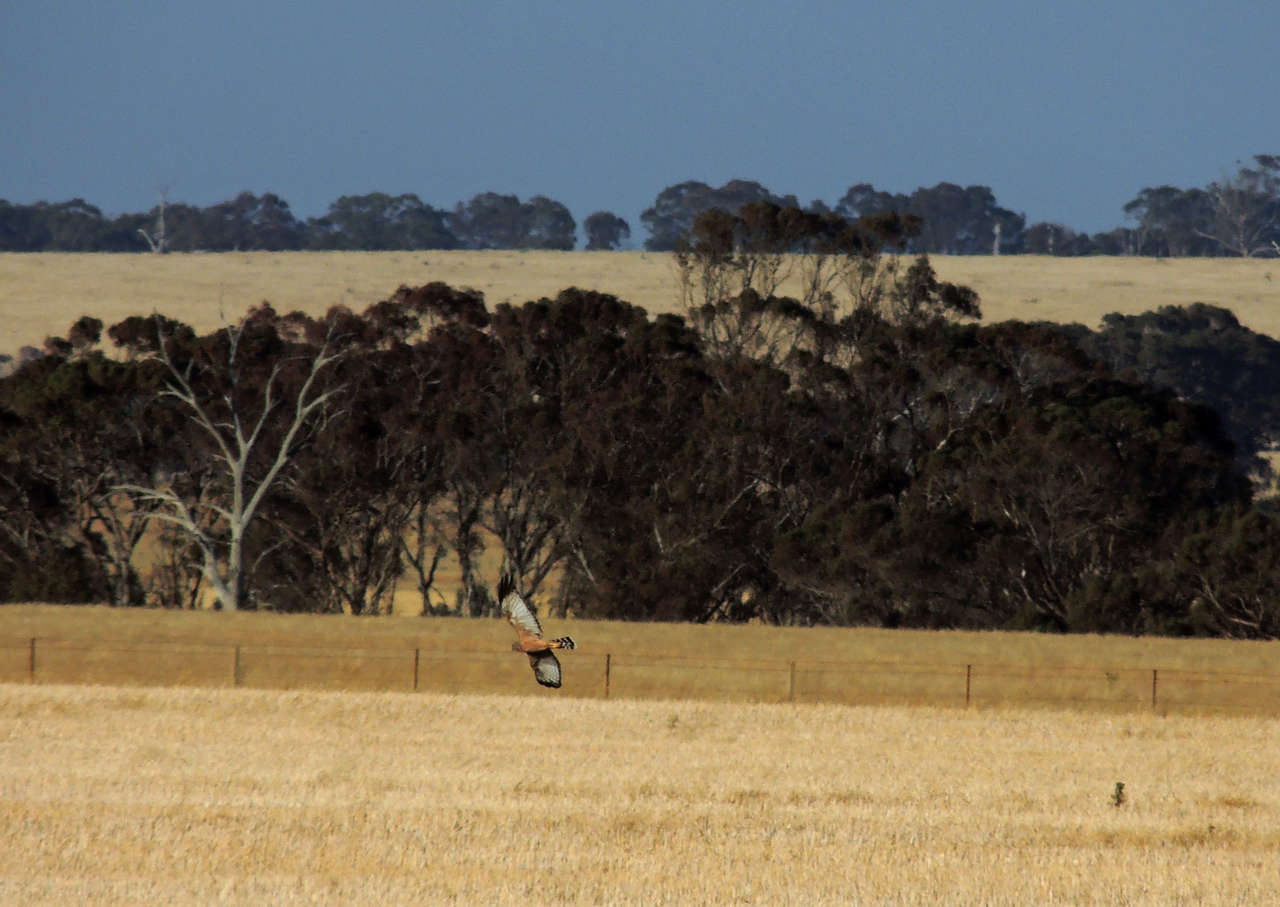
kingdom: Animalia
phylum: Chordata
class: Aves
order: Accipitriformes
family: Accipitridae
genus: Circus
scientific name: Circus assimilis
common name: Spotted harrier
